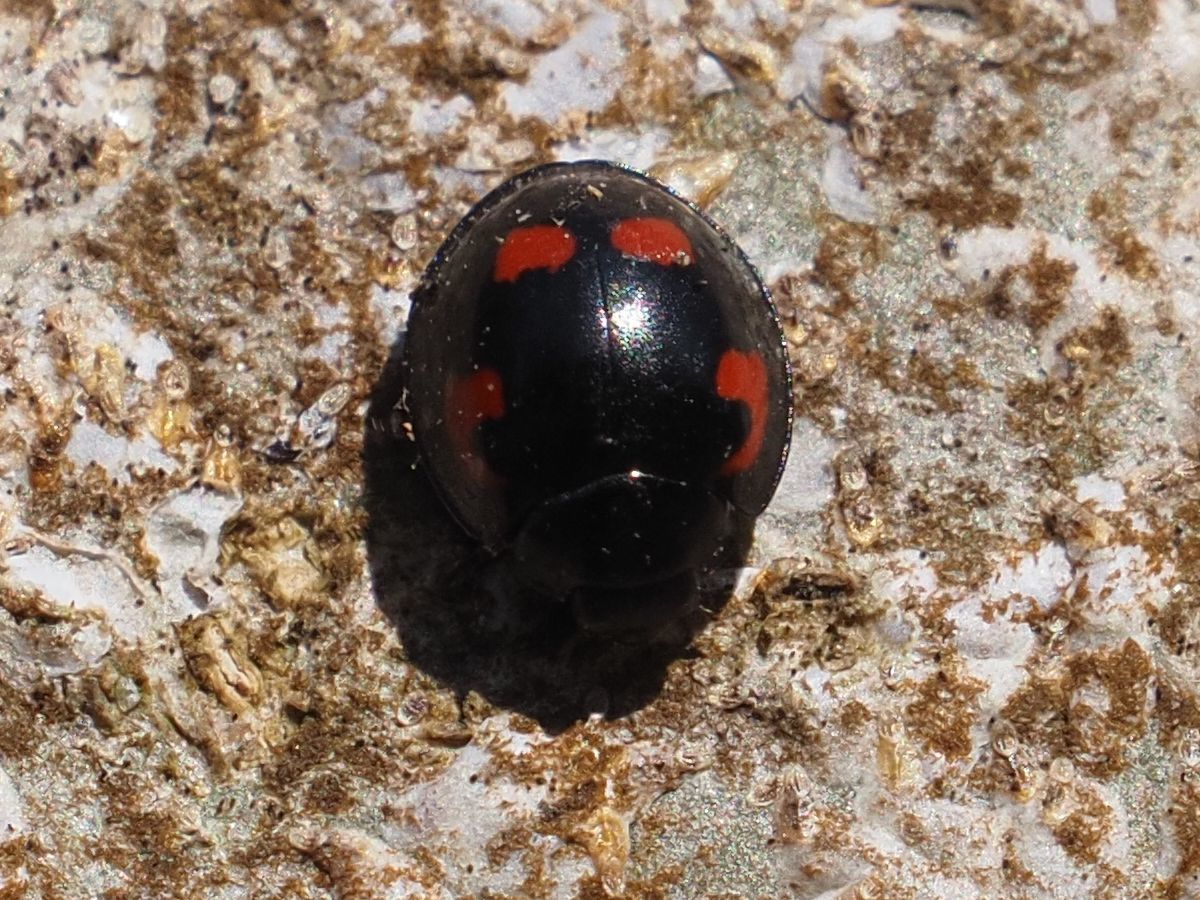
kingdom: Animalia
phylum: Arthropoda
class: Insecta
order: Coleoptera
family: Coccinellidae
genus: Brumus
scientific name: Brumus quadripustulatus
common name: Ladybird beetle
